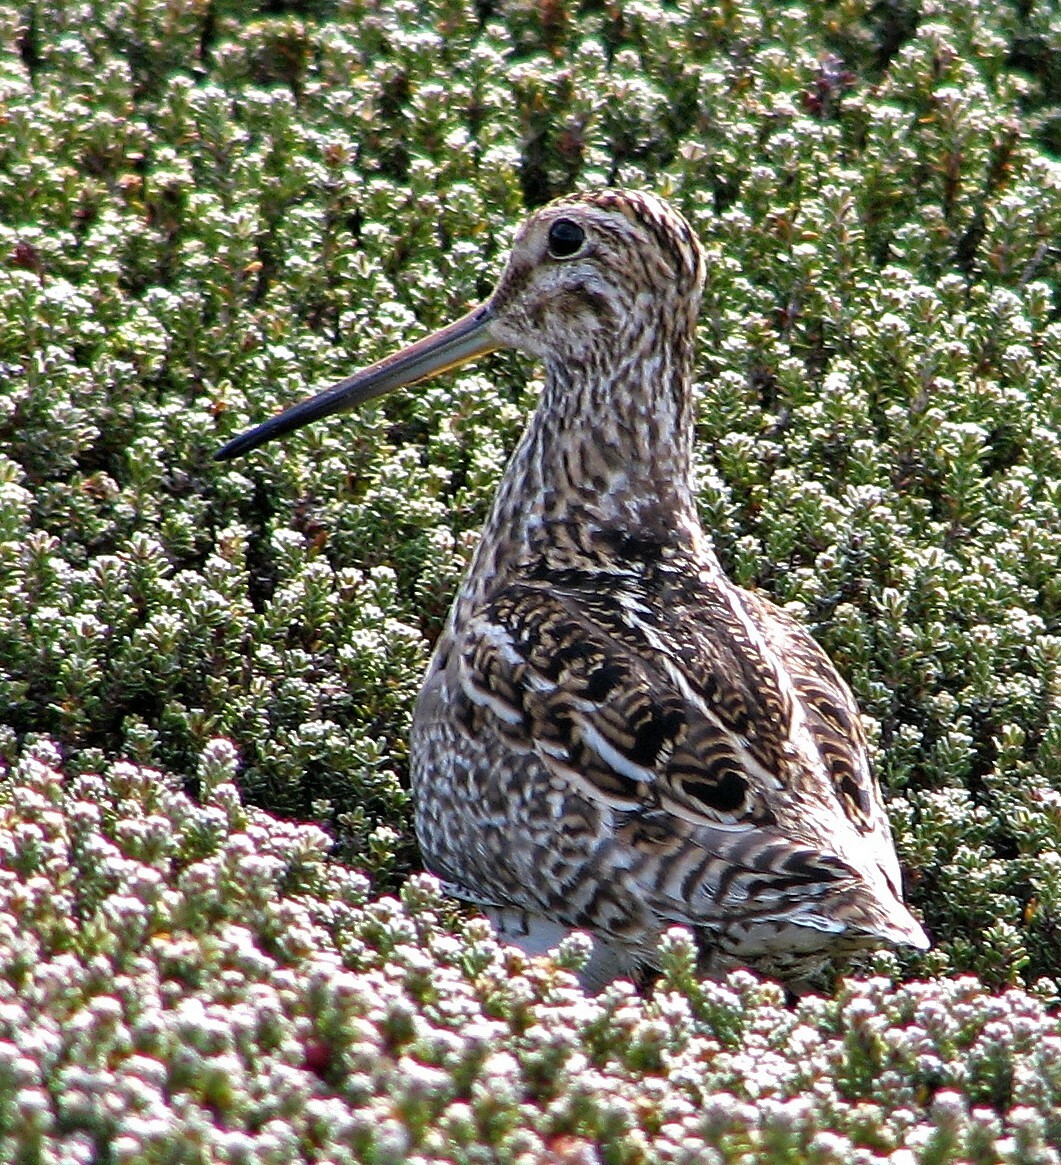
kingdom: Animalia
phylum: Chordata
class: Aves
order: Charadriiformes
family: Scolopacidae
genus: Gallinago
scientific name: Gallinago magellanica
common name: Magellanic snipe
